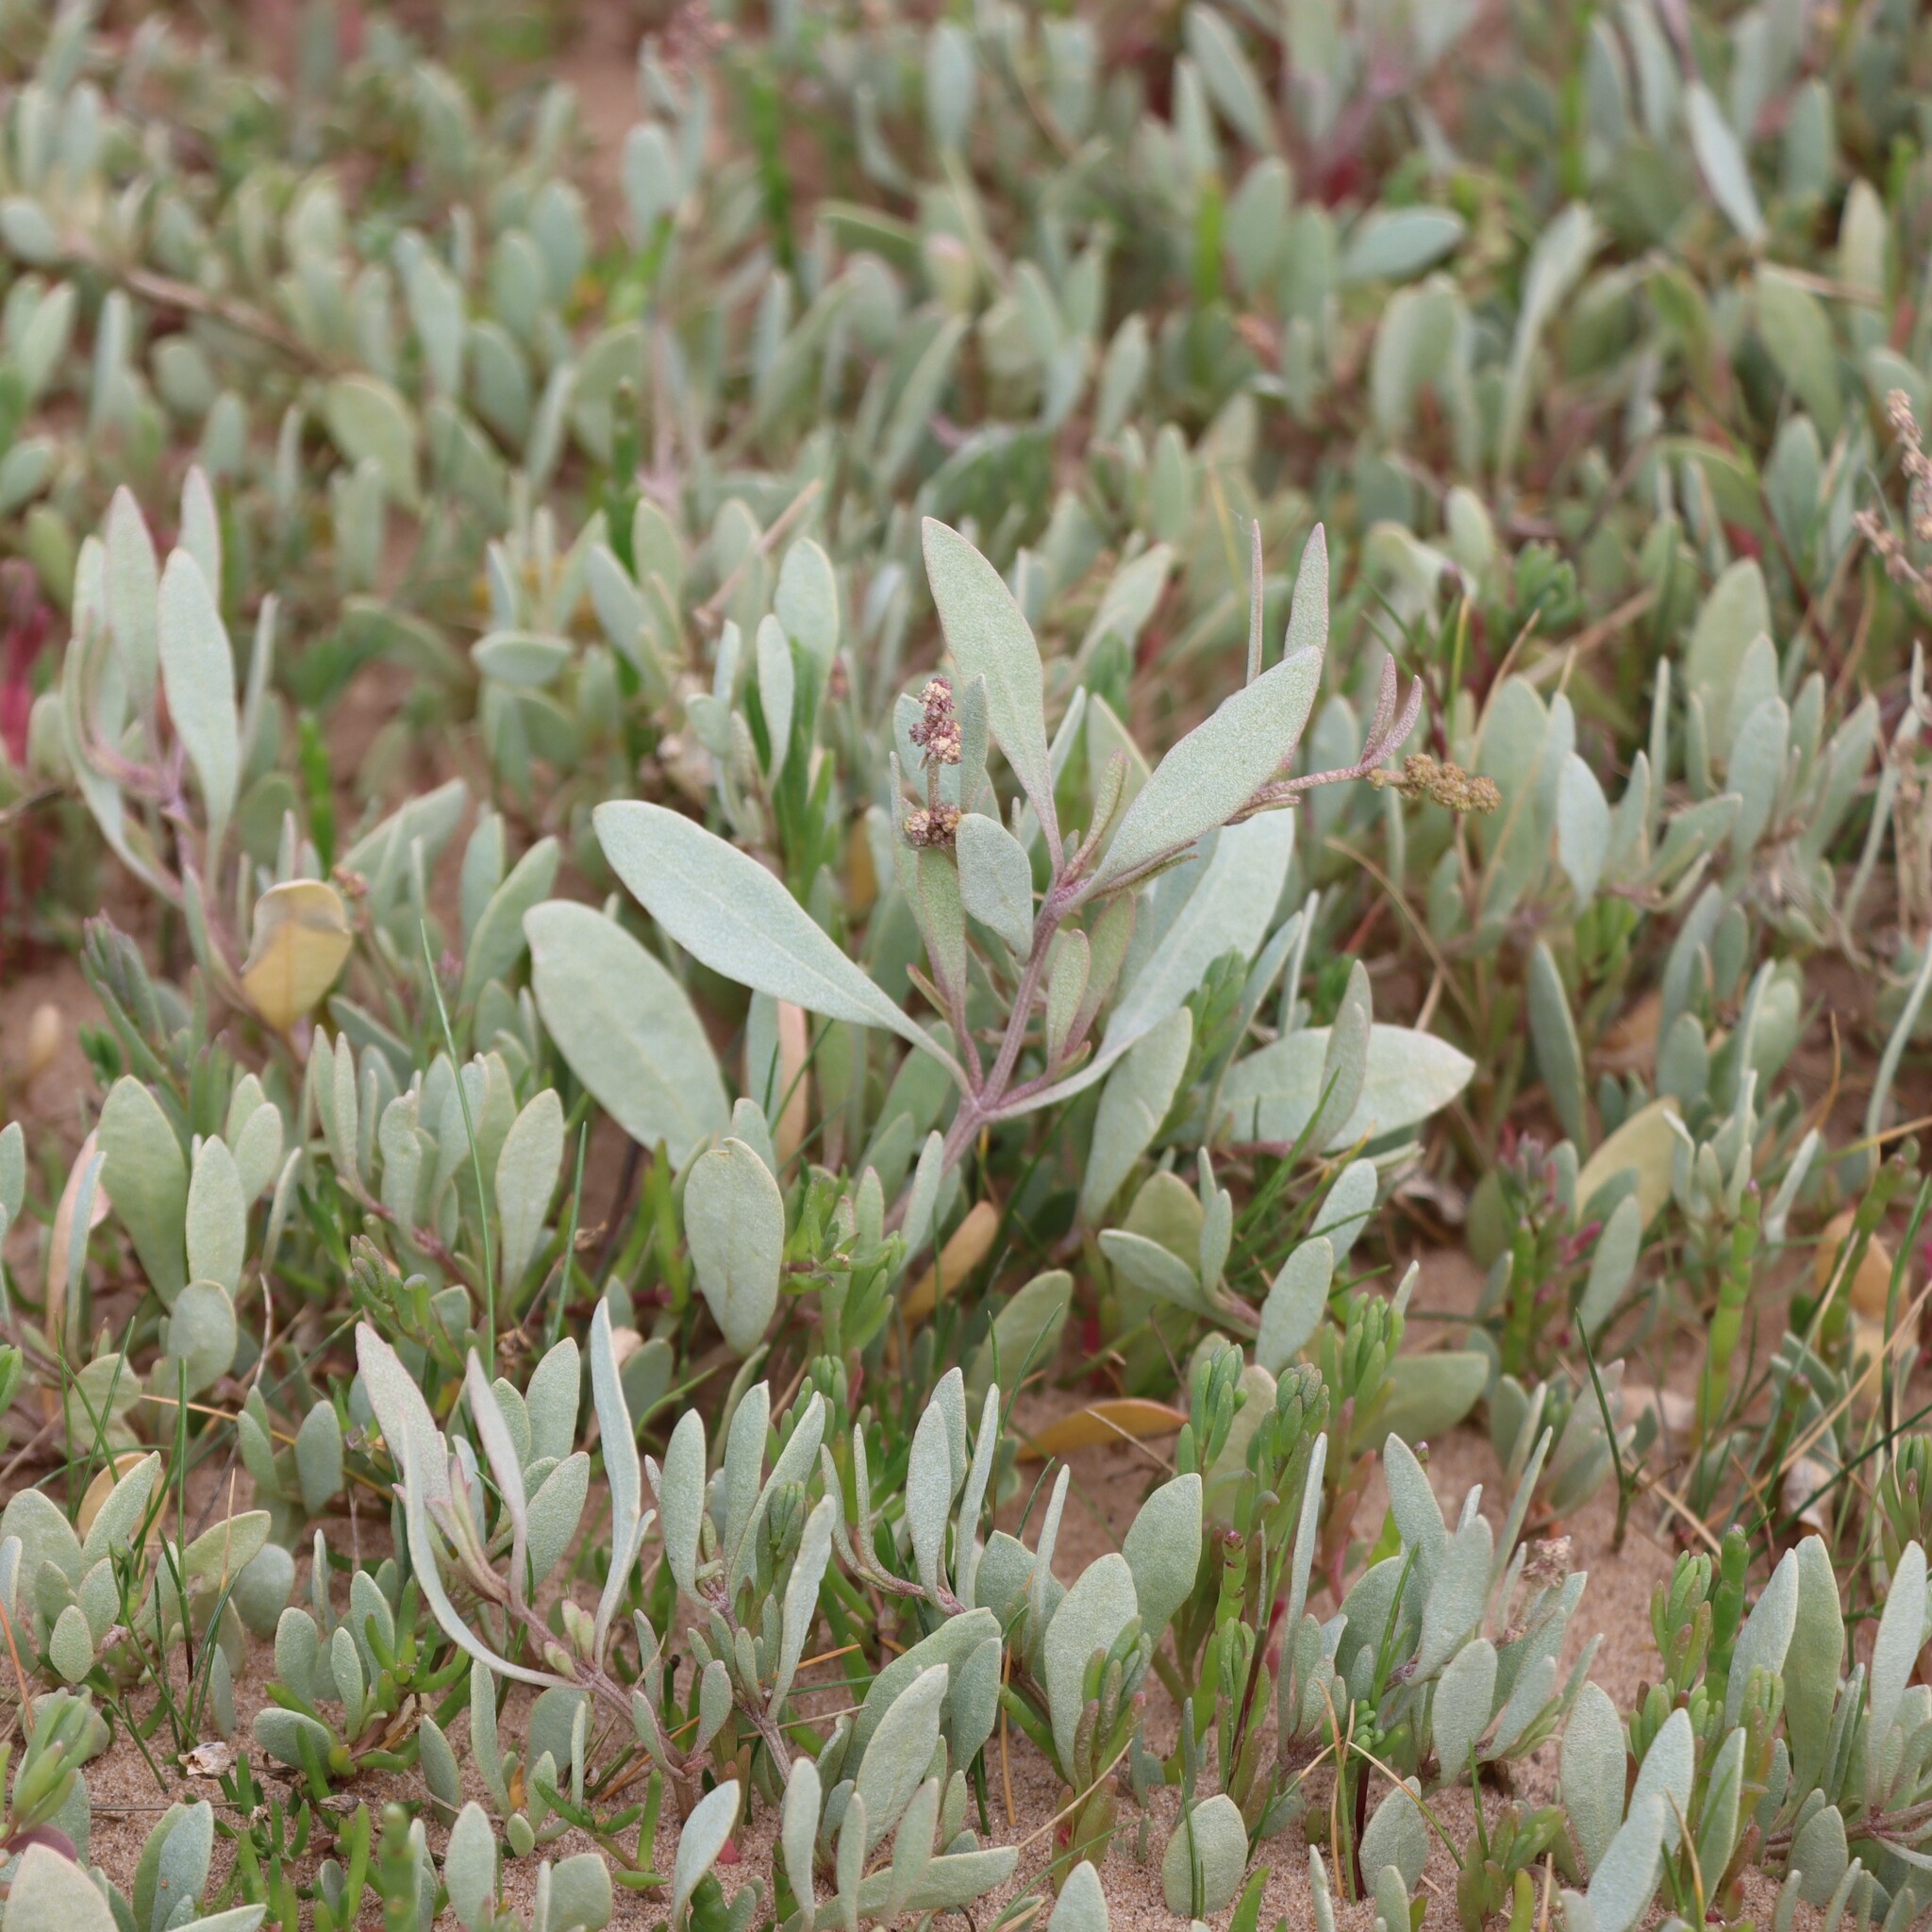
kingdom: Plantae
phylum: Tracheophyta
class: Magnoliopsida
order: Caryophyllales
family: Amaranthaceae
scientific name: Amaranthaceae
